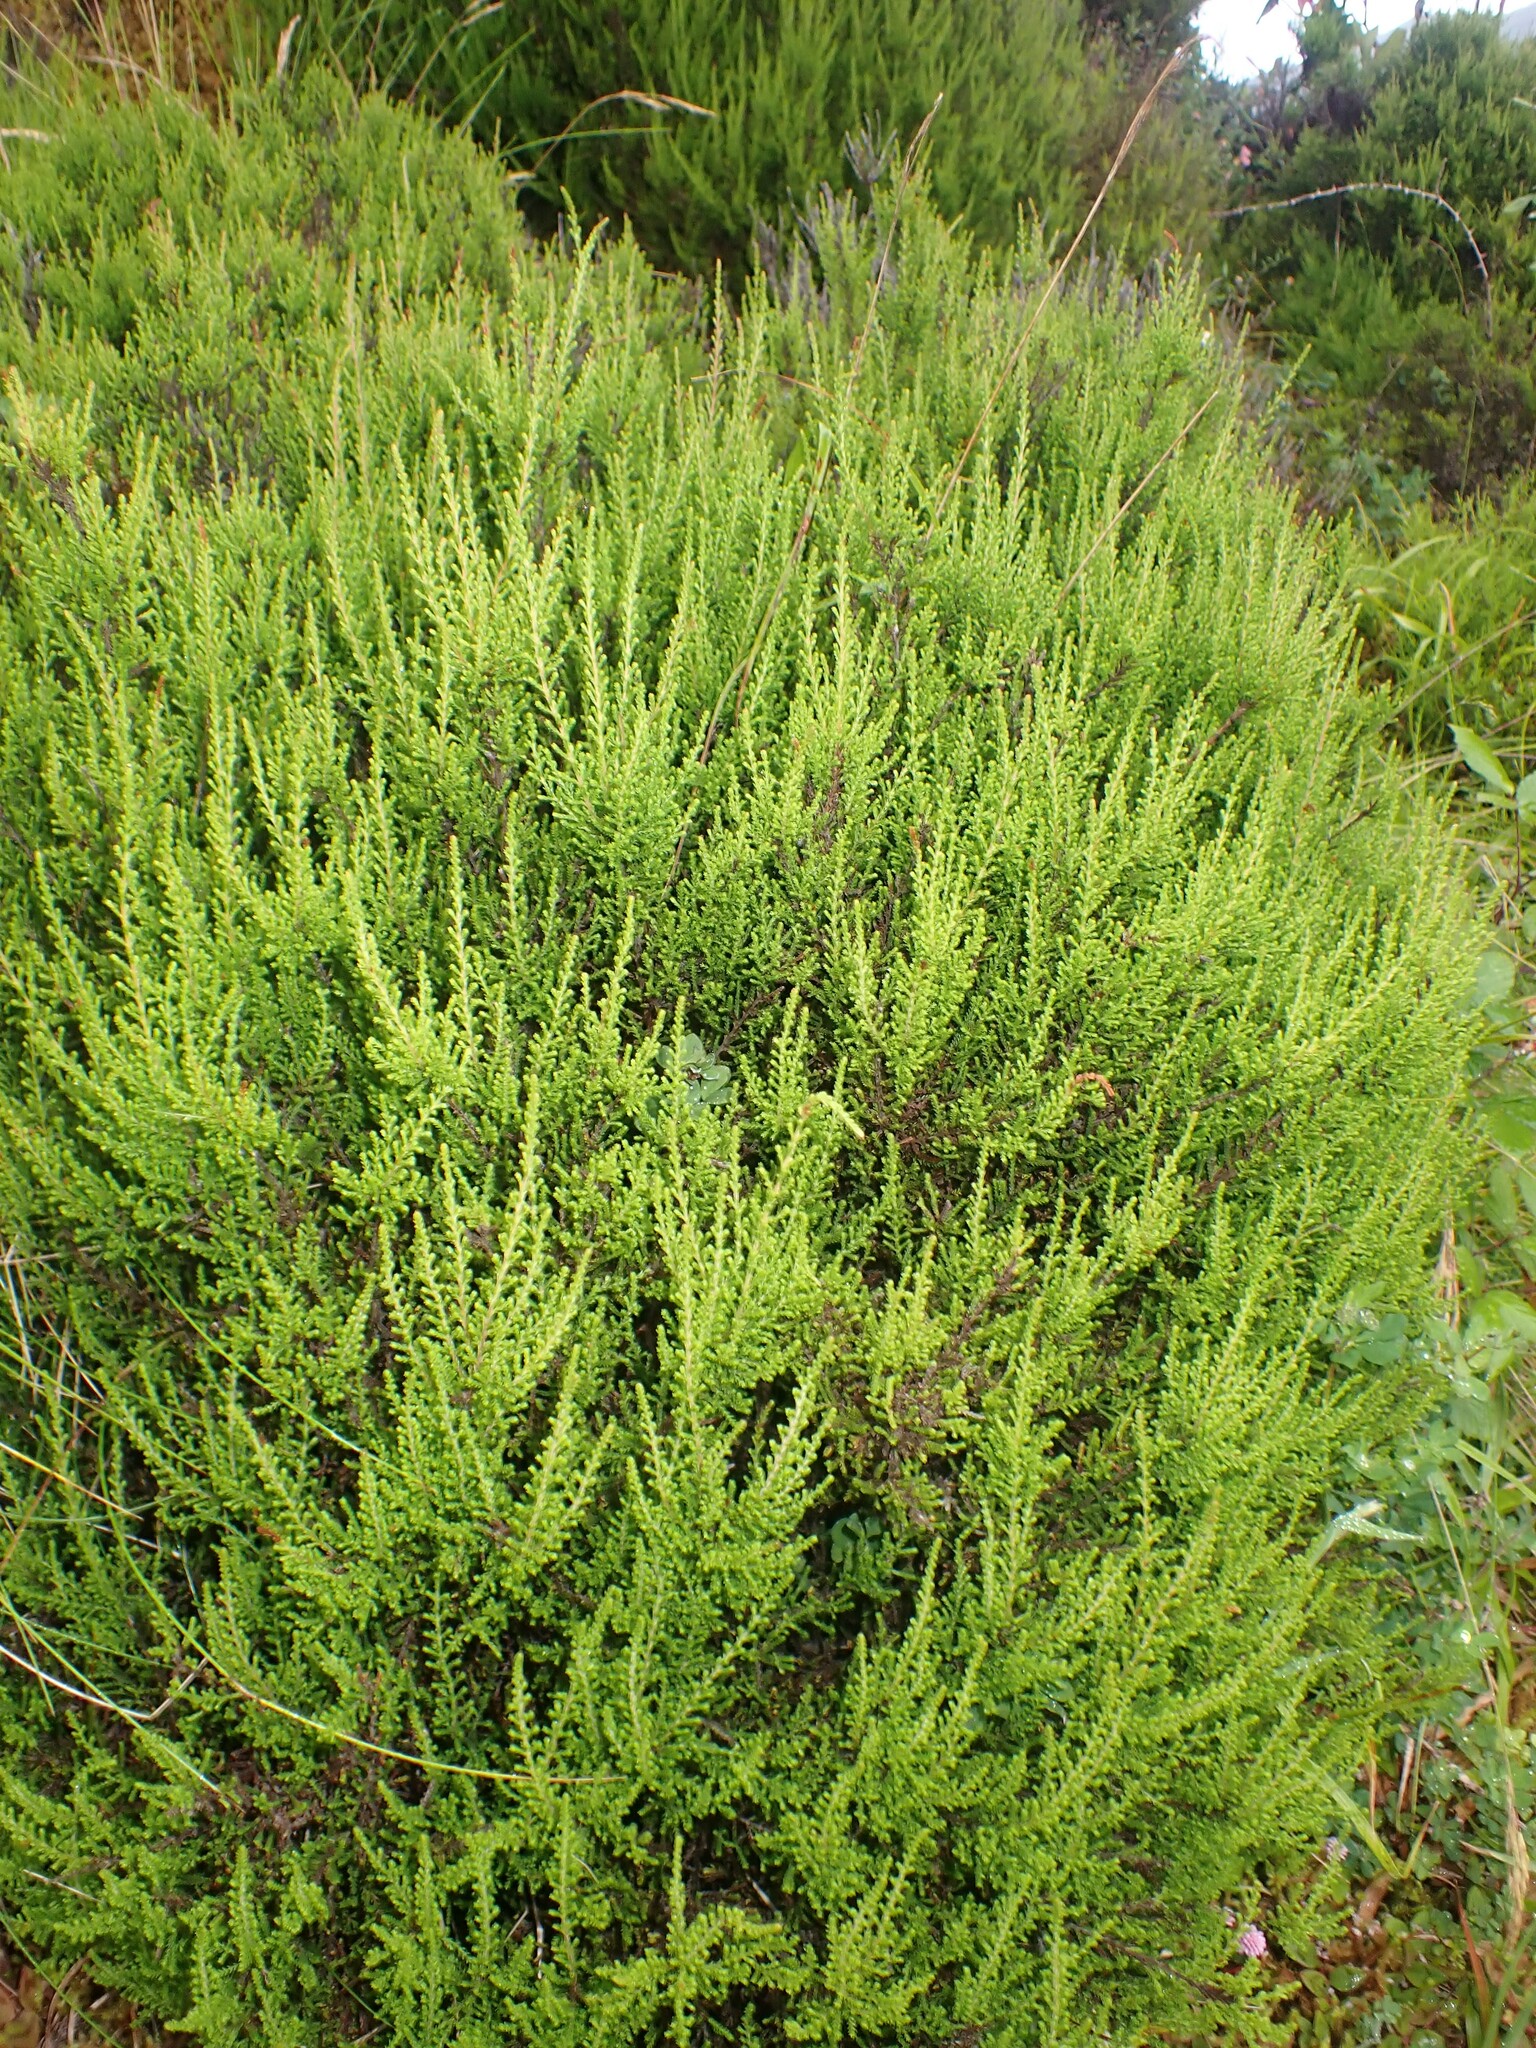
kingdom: Plantae
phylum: Tracheophyta
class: Magnoliopsida
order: Ericales
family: Ericaceae
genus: Calluna
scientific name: Calluna vulgaris
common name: Heather
